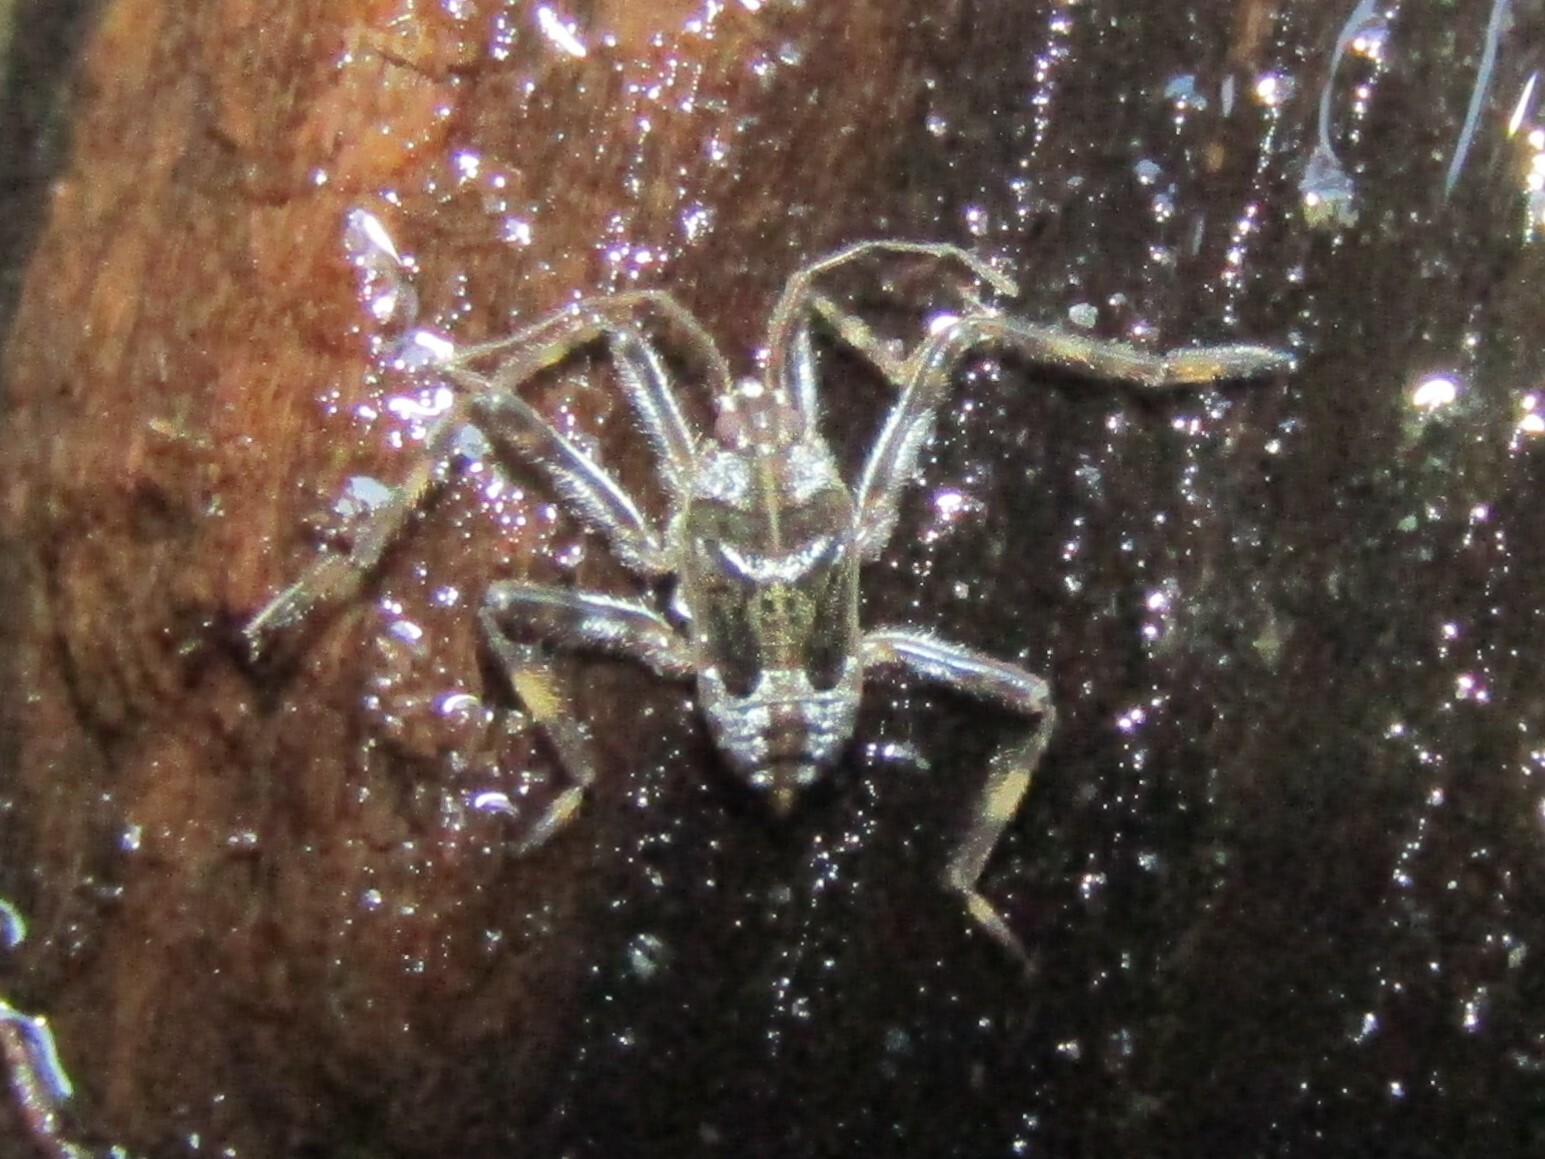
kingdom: Animalia
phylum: Arthropoda
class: Insecta
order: Hemiptera
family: Veliidae
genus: Platyvelia
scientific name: Platyvelia brachialis
